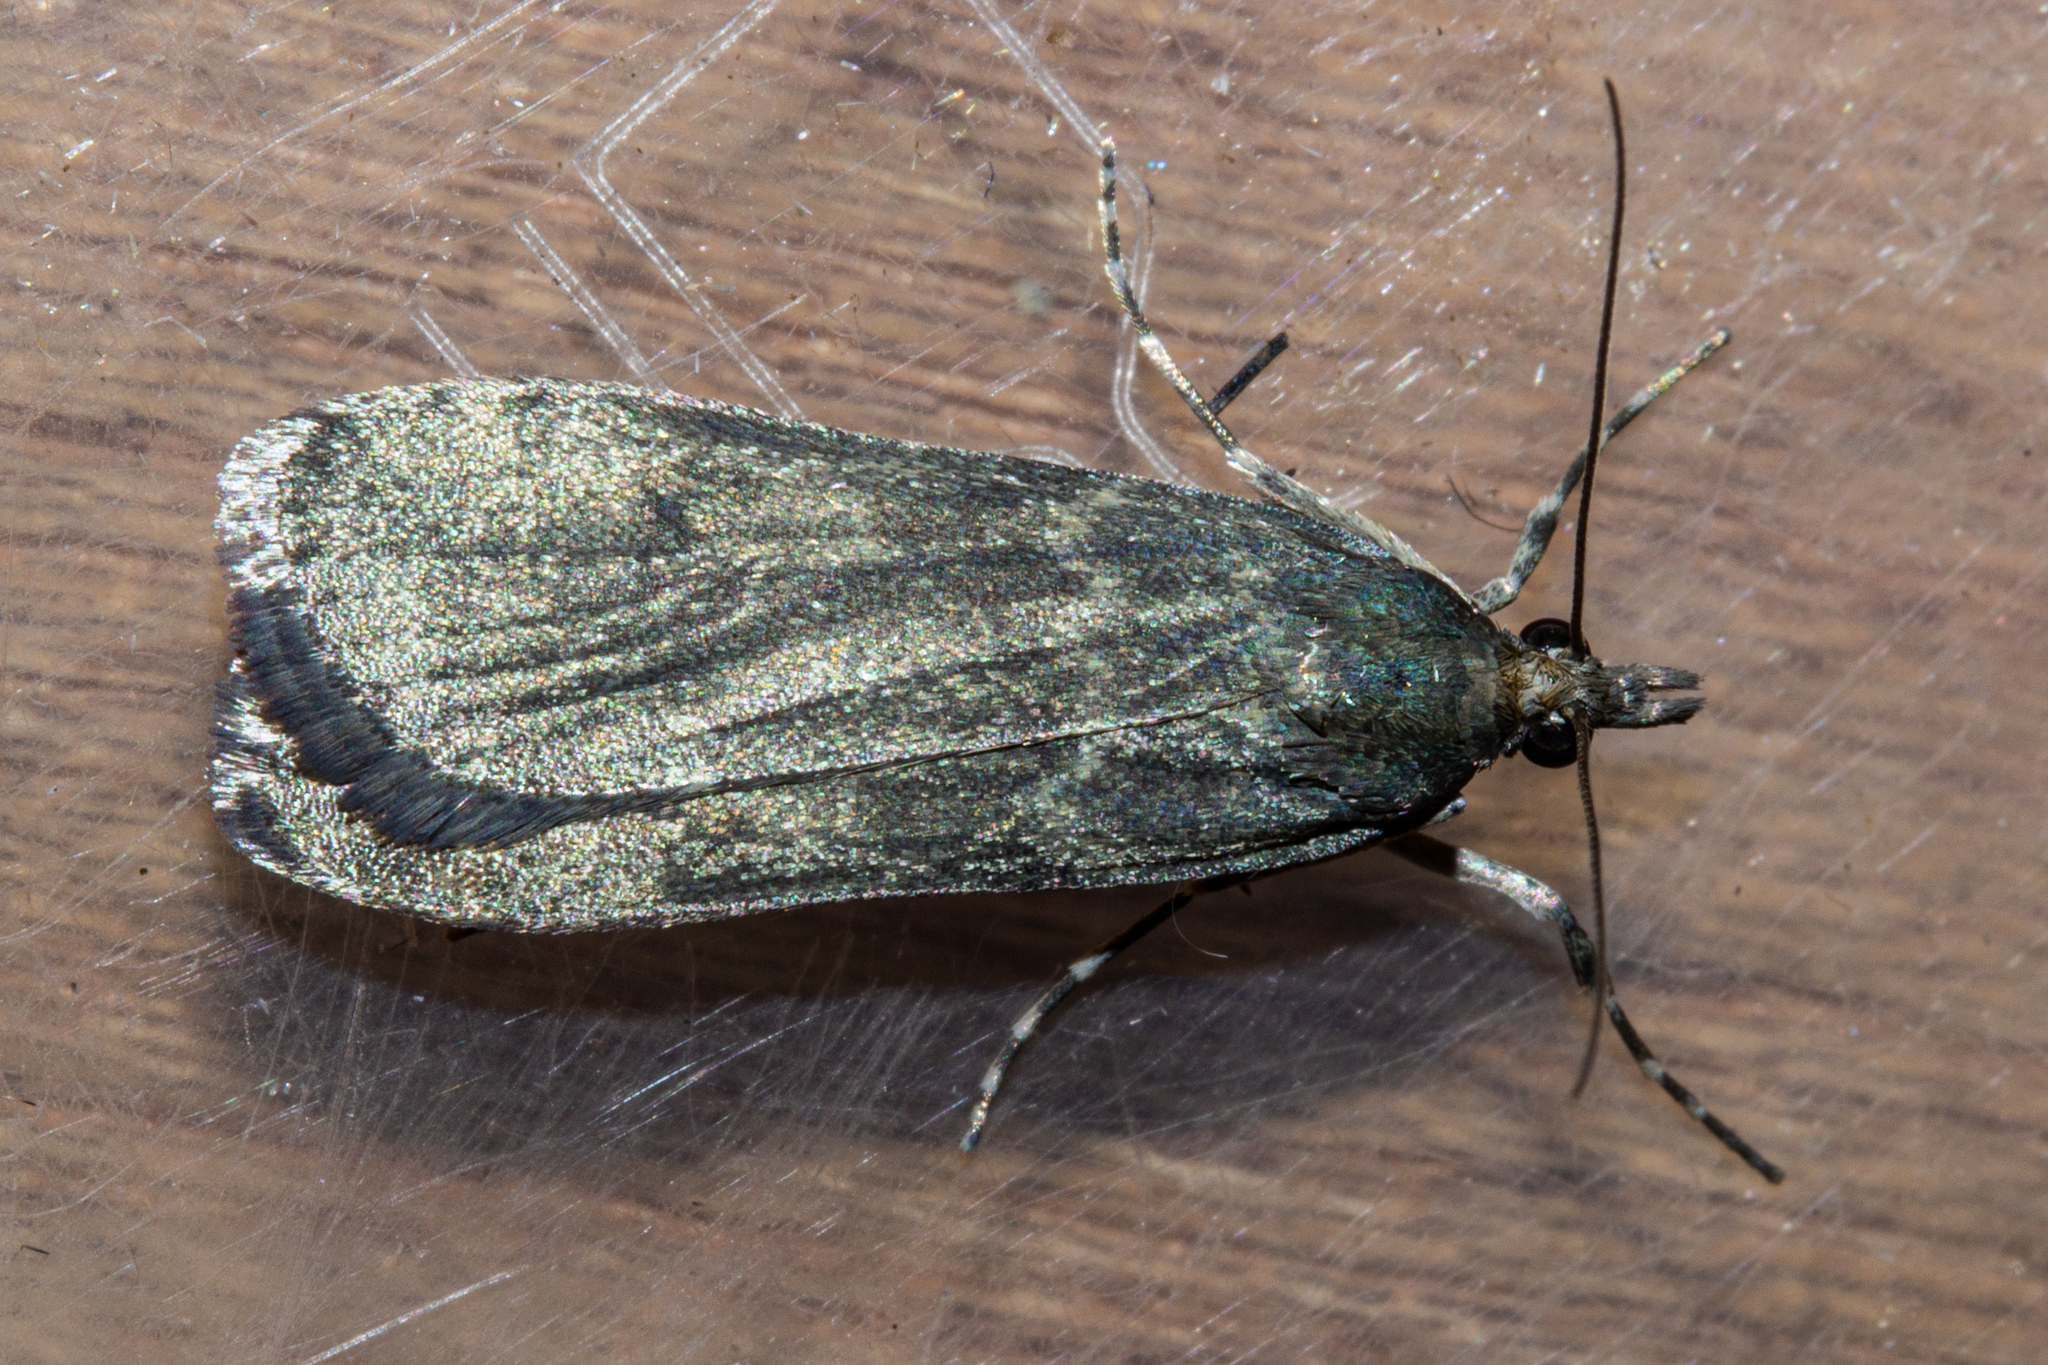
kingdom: Animalia
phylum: Arthropoda
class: Insecta
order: Lepidoptera
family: Crambidae
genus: Eudonia
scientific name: Eudonia cataxesta
